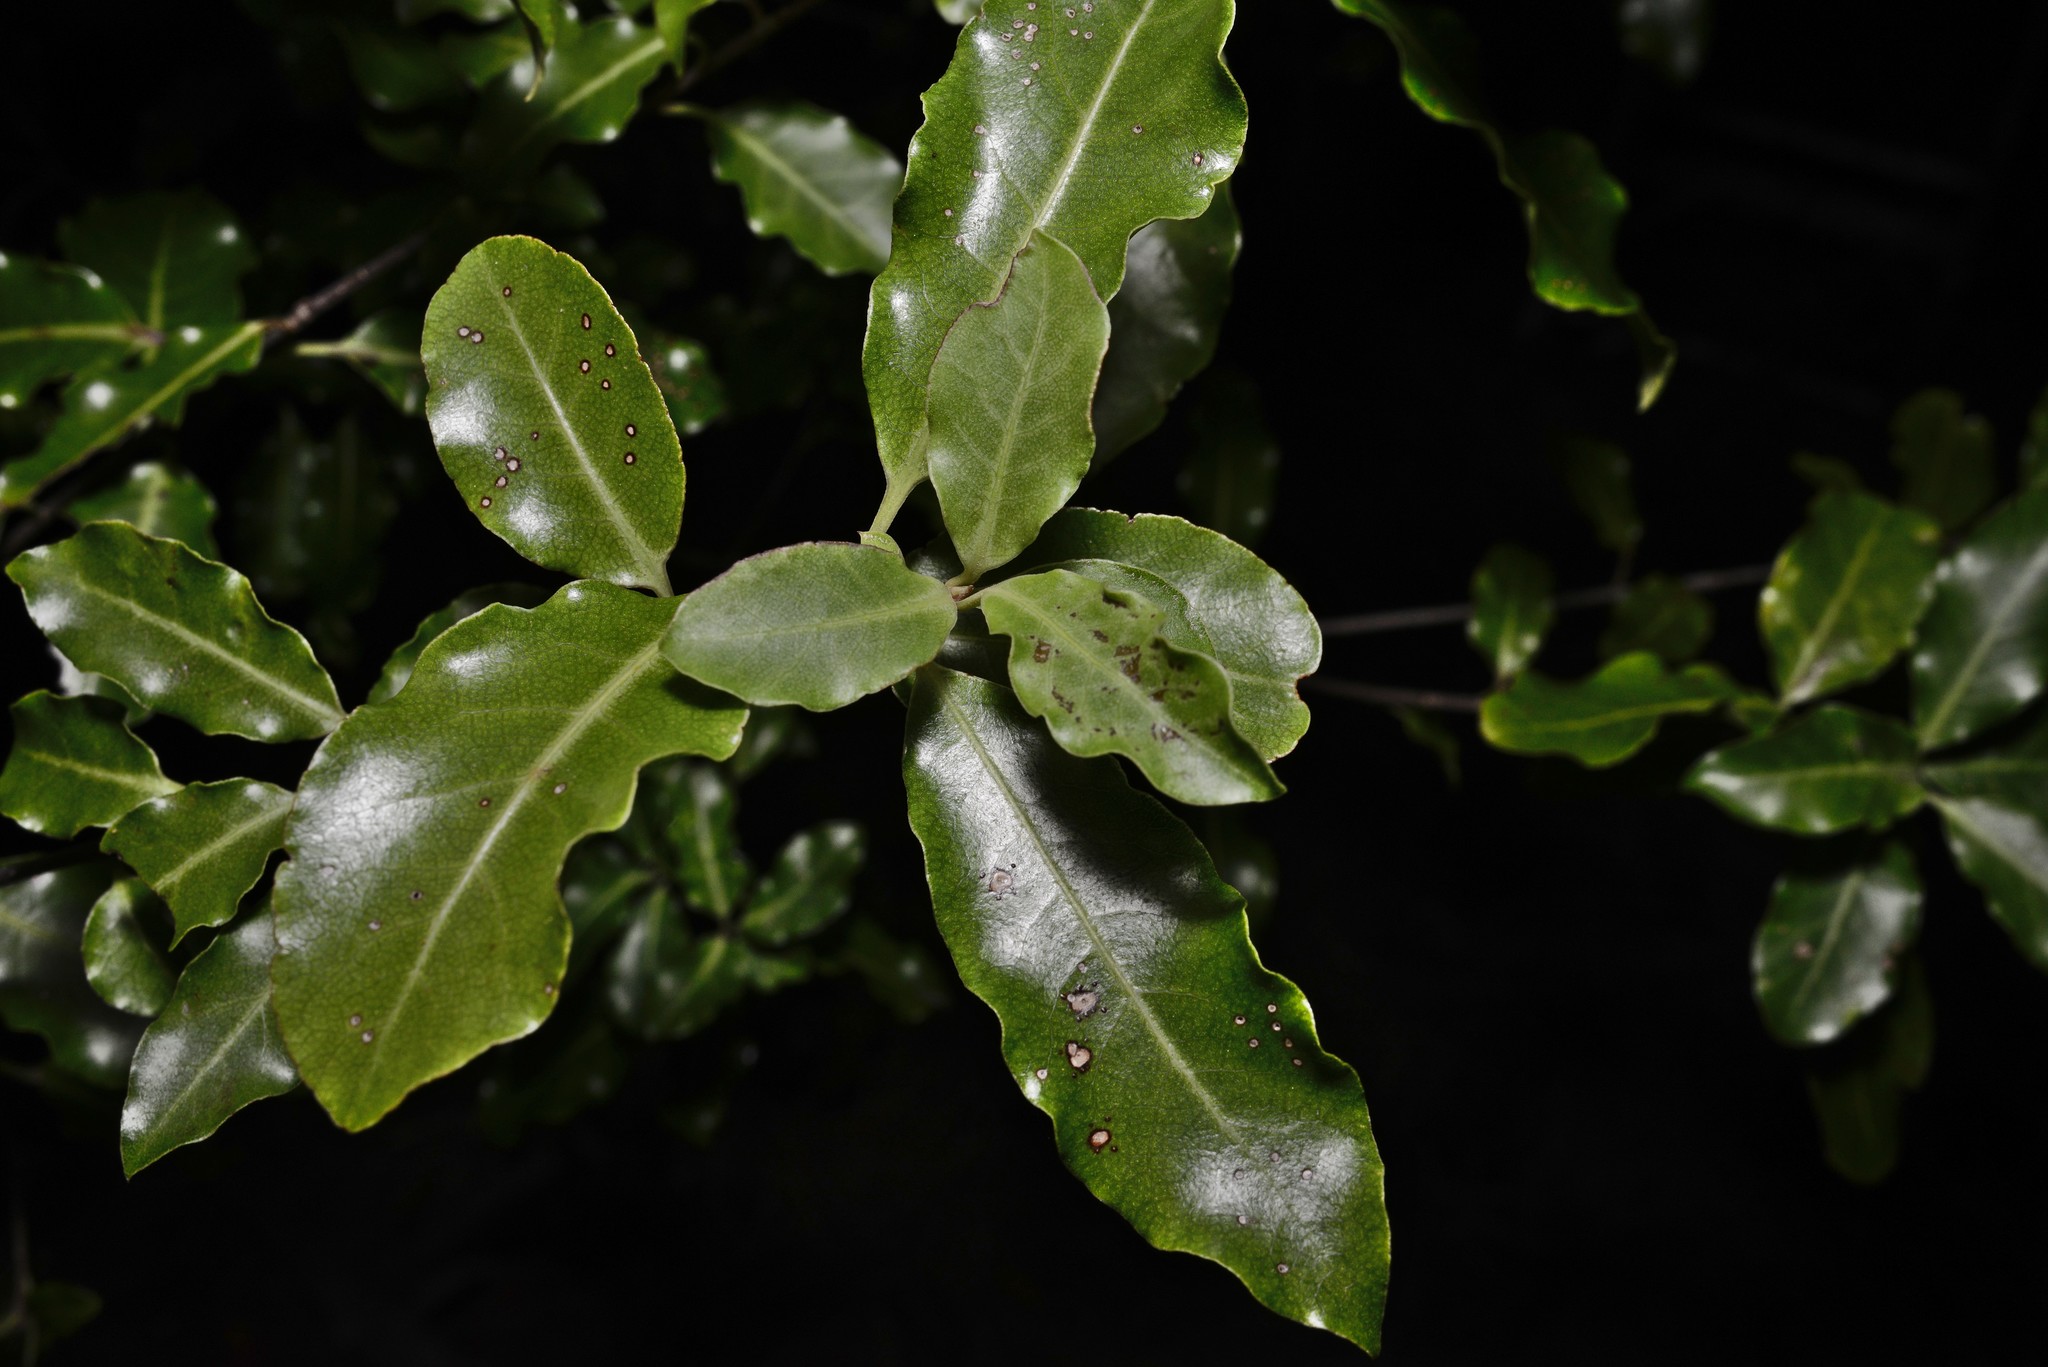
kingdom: Plantae
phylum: Tracheophyta
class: Magnoliopsida
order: Apiales
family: Pittosporaceae
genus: Pittosporum
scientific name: Pittosporum tenuifolium
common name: Kohuhu
